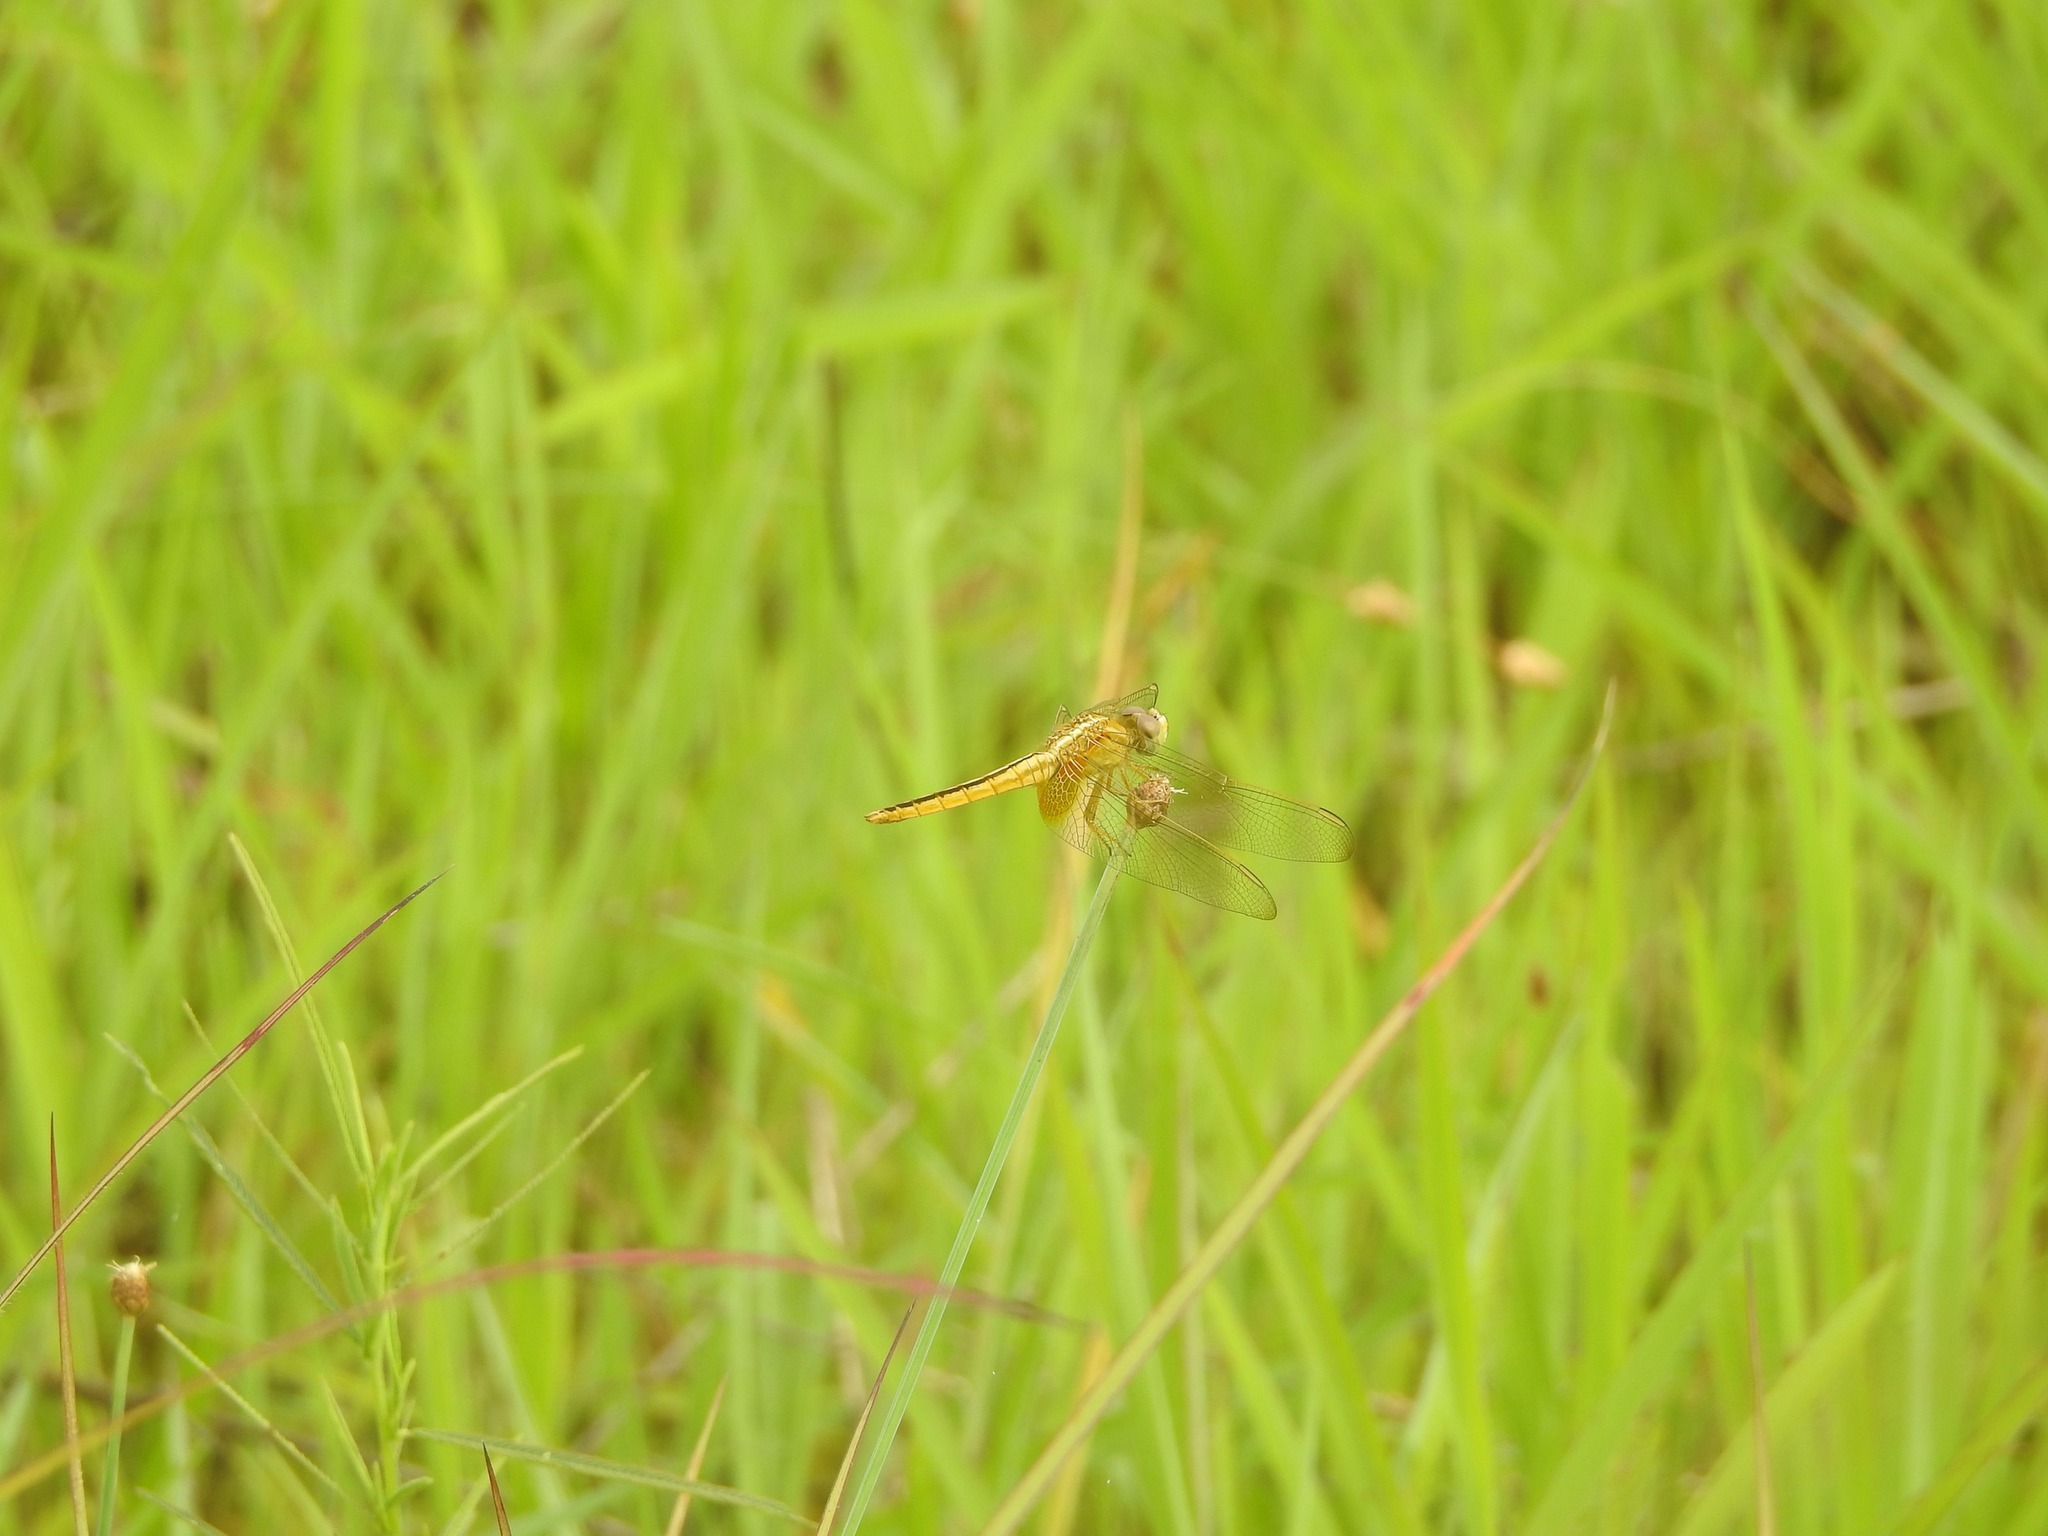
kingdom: Animalia
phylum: Arthropoda
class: Insecta
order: Odonata
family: Libellulidae
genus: Crocothemis
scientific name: Crocothemis servilia
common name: Scarlet skimmer
